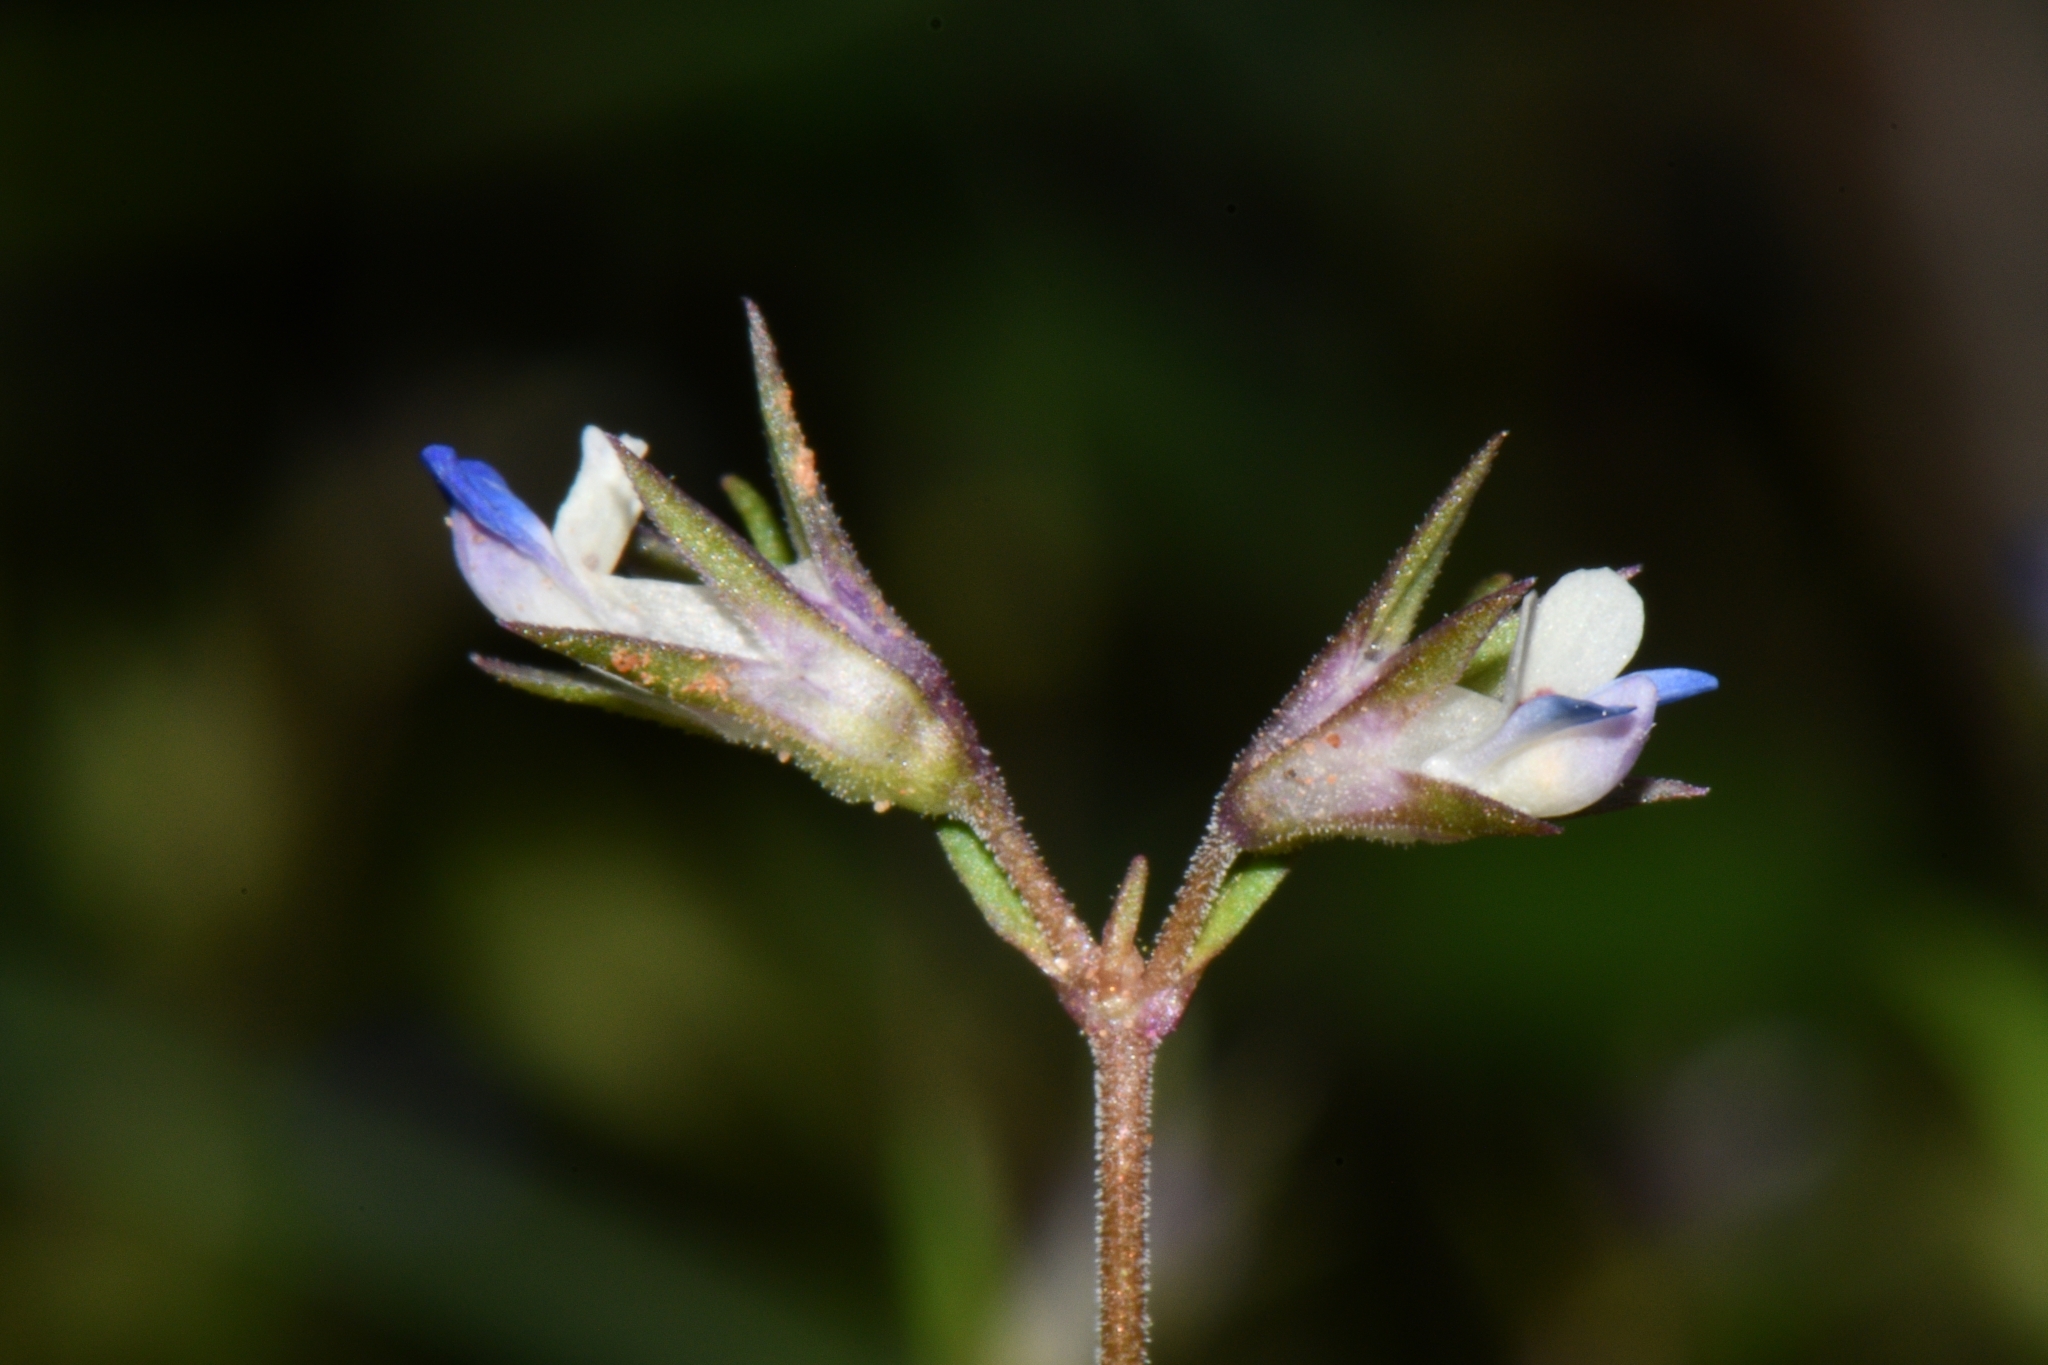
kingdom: Plantae
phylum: Tracheophyta
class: Magnoliopsida
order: Lamiales
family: Plantaginaceae
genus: Collinsia
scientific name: Collinsia parviflora
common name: Blue-lips
